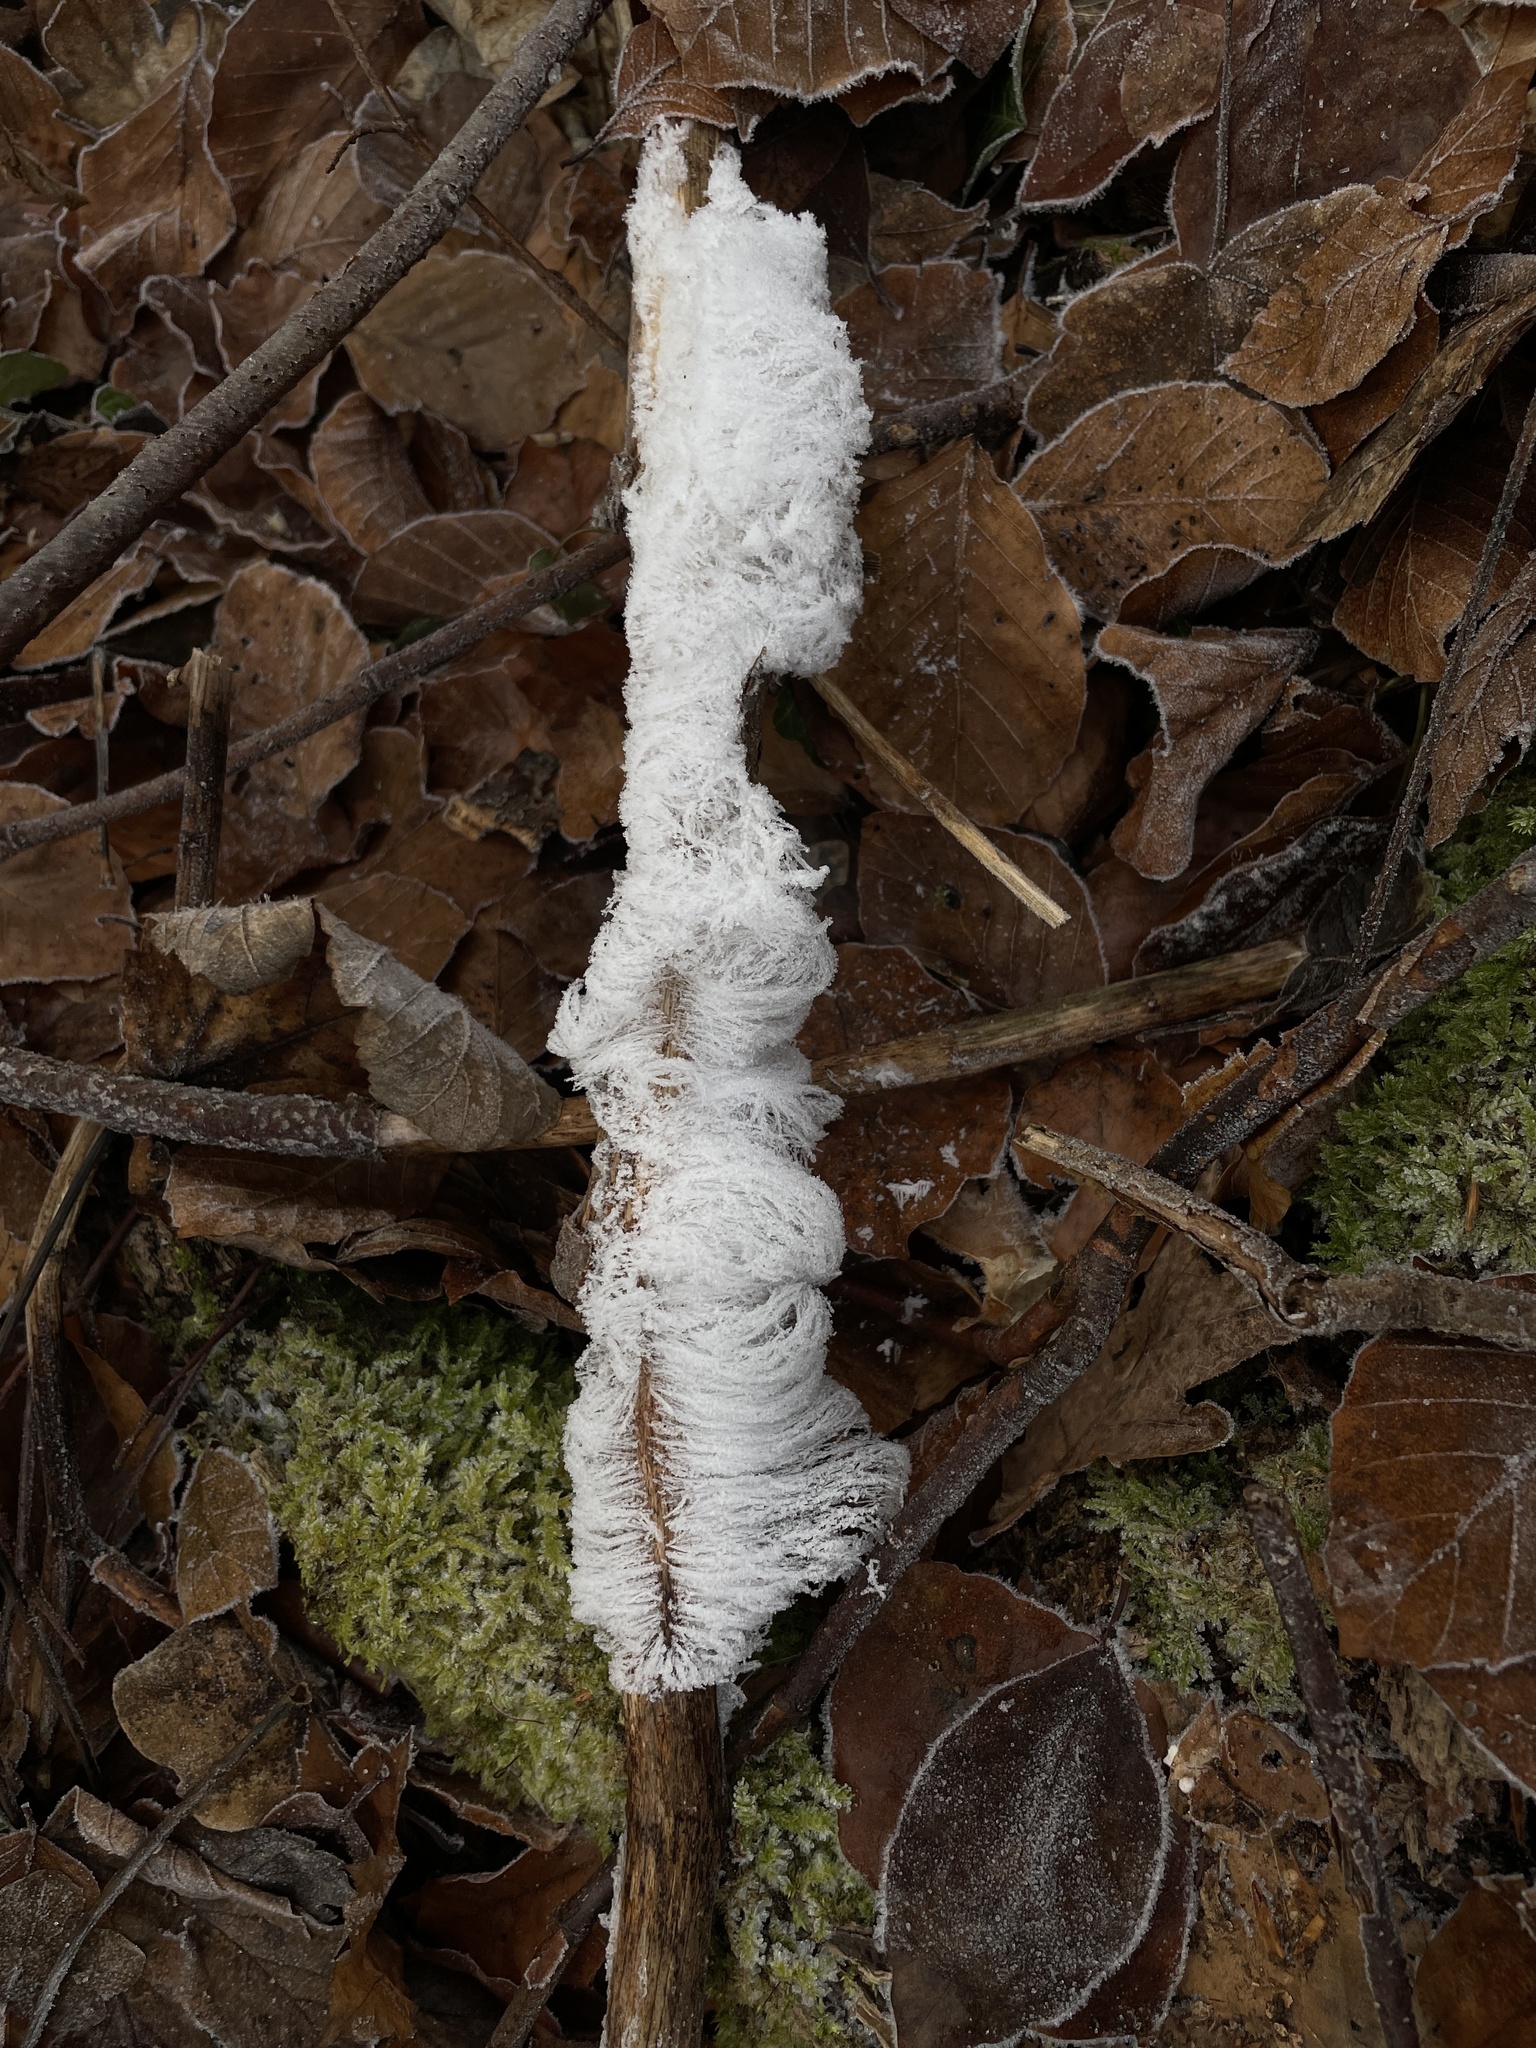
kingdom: Fungi
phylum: Basidiomycota
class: Agaricomycetes
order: Auriculariales
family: Auriculariaceae
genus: Exidiopsis
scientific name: Exidiopsis effusa
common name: Hair ice crust
